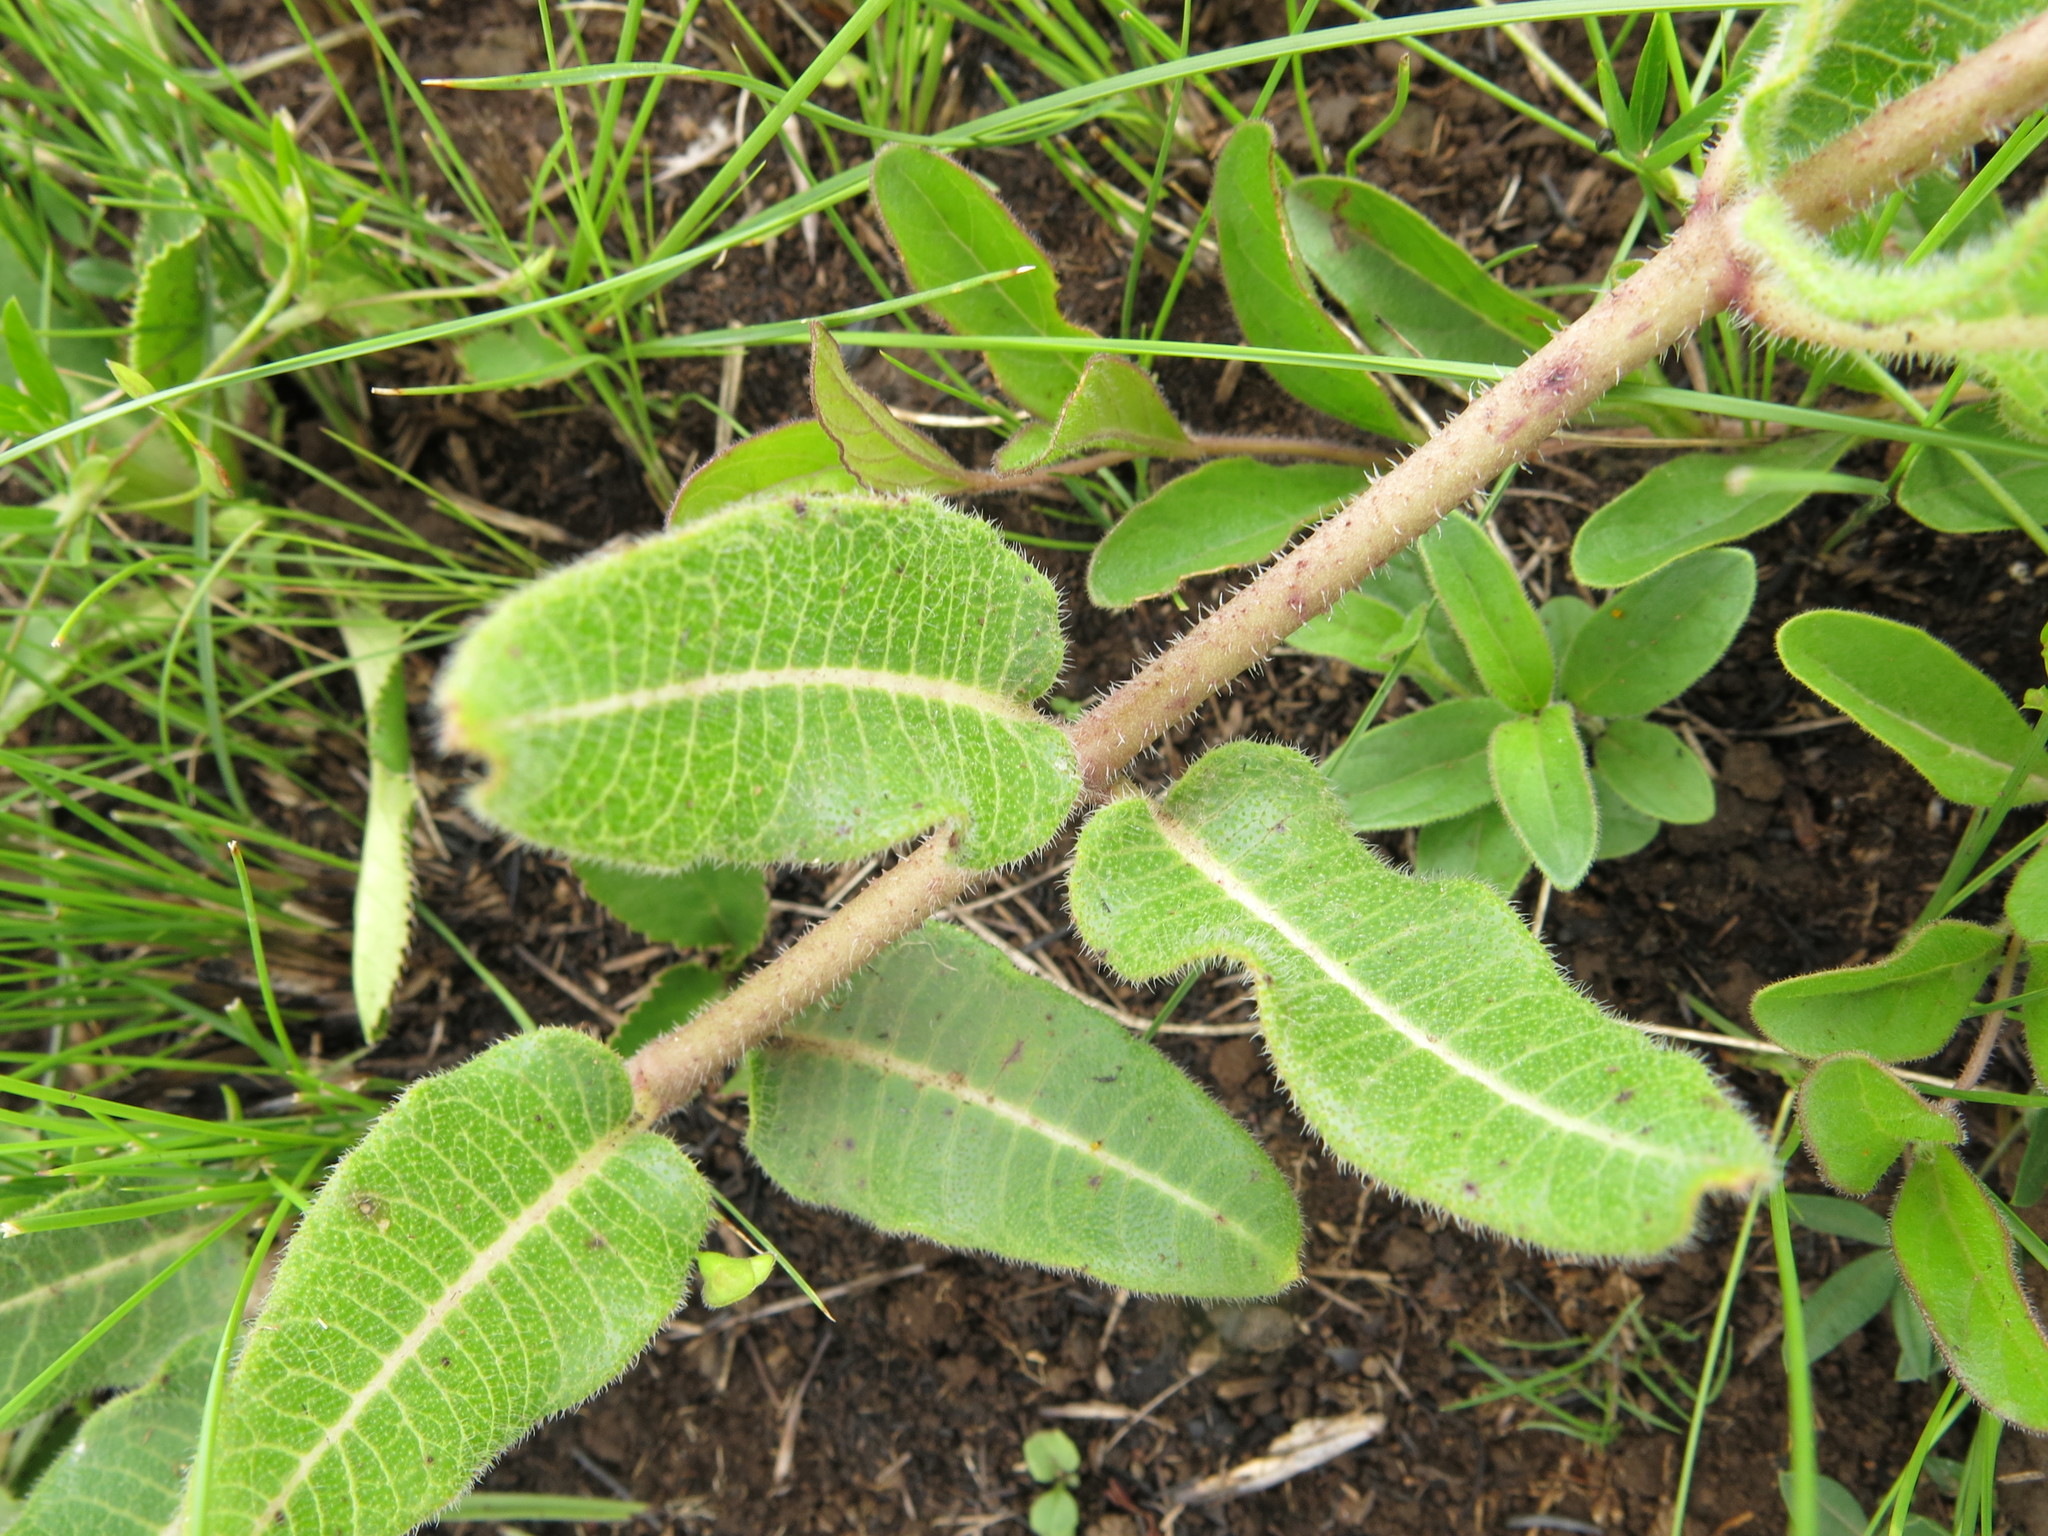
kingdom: Plantae
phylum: Tracheophyta
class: Magnoliopsida
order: Gentianales
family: Apocynaceae
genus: Asclepias
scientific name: Asclepias albens
